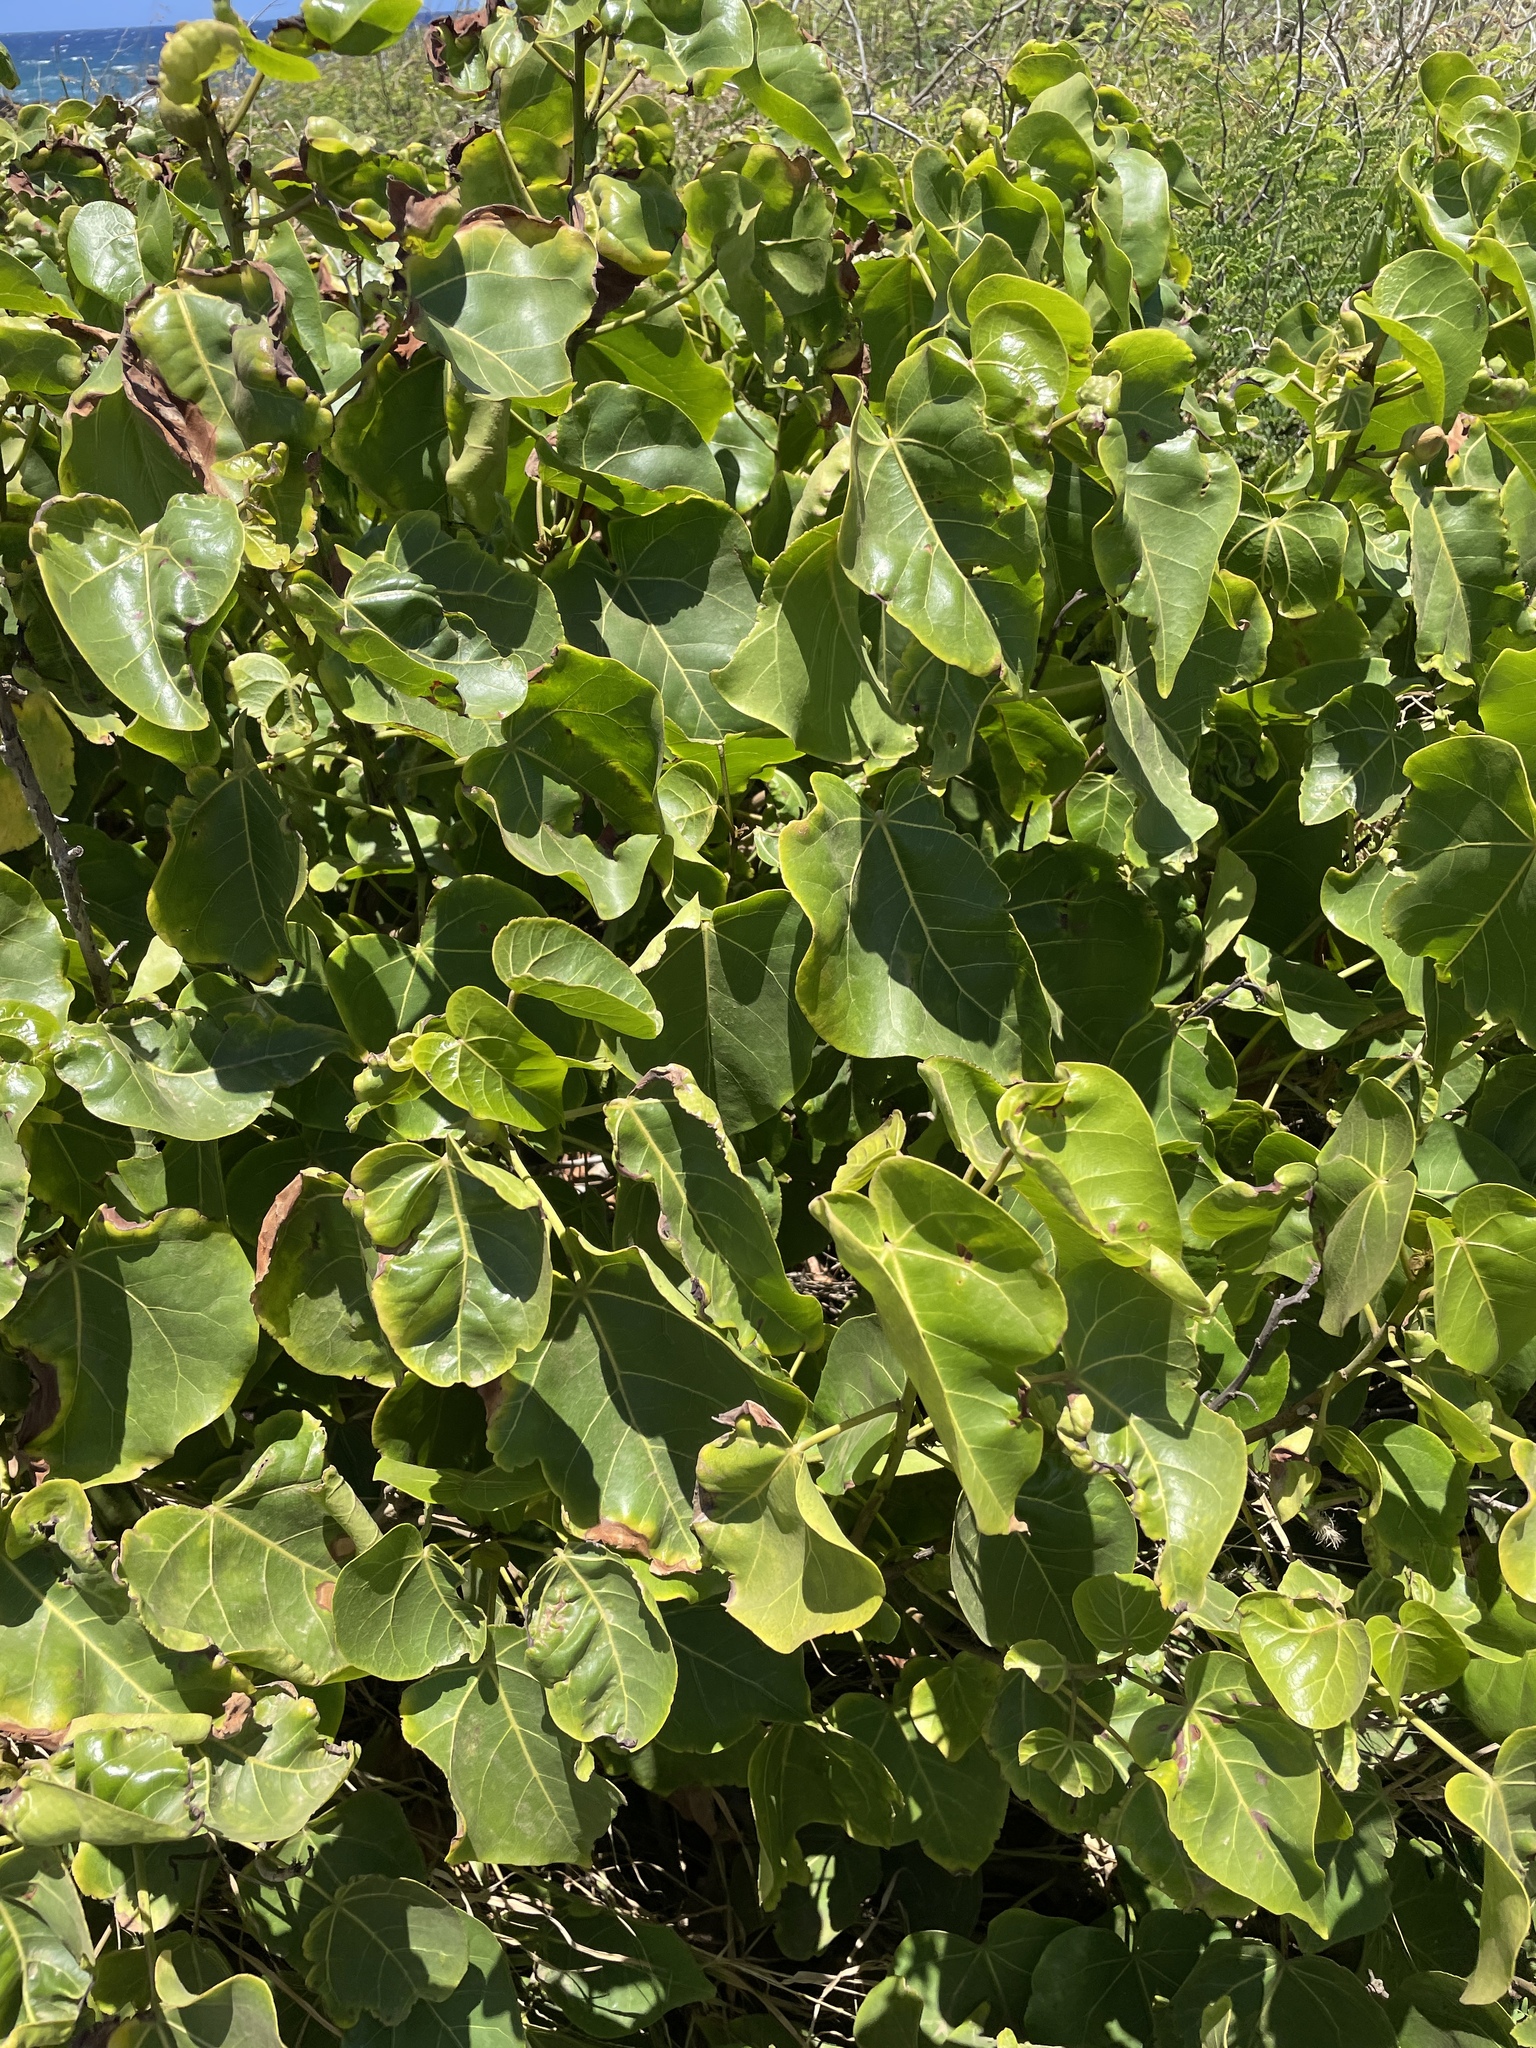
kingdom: Plantae
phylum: Tracheophyta
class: Magnoliopsida
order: Malvales
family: Malvaceae
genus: Thespesia
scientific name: Thespesia populnea
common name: Seaside mahoe
